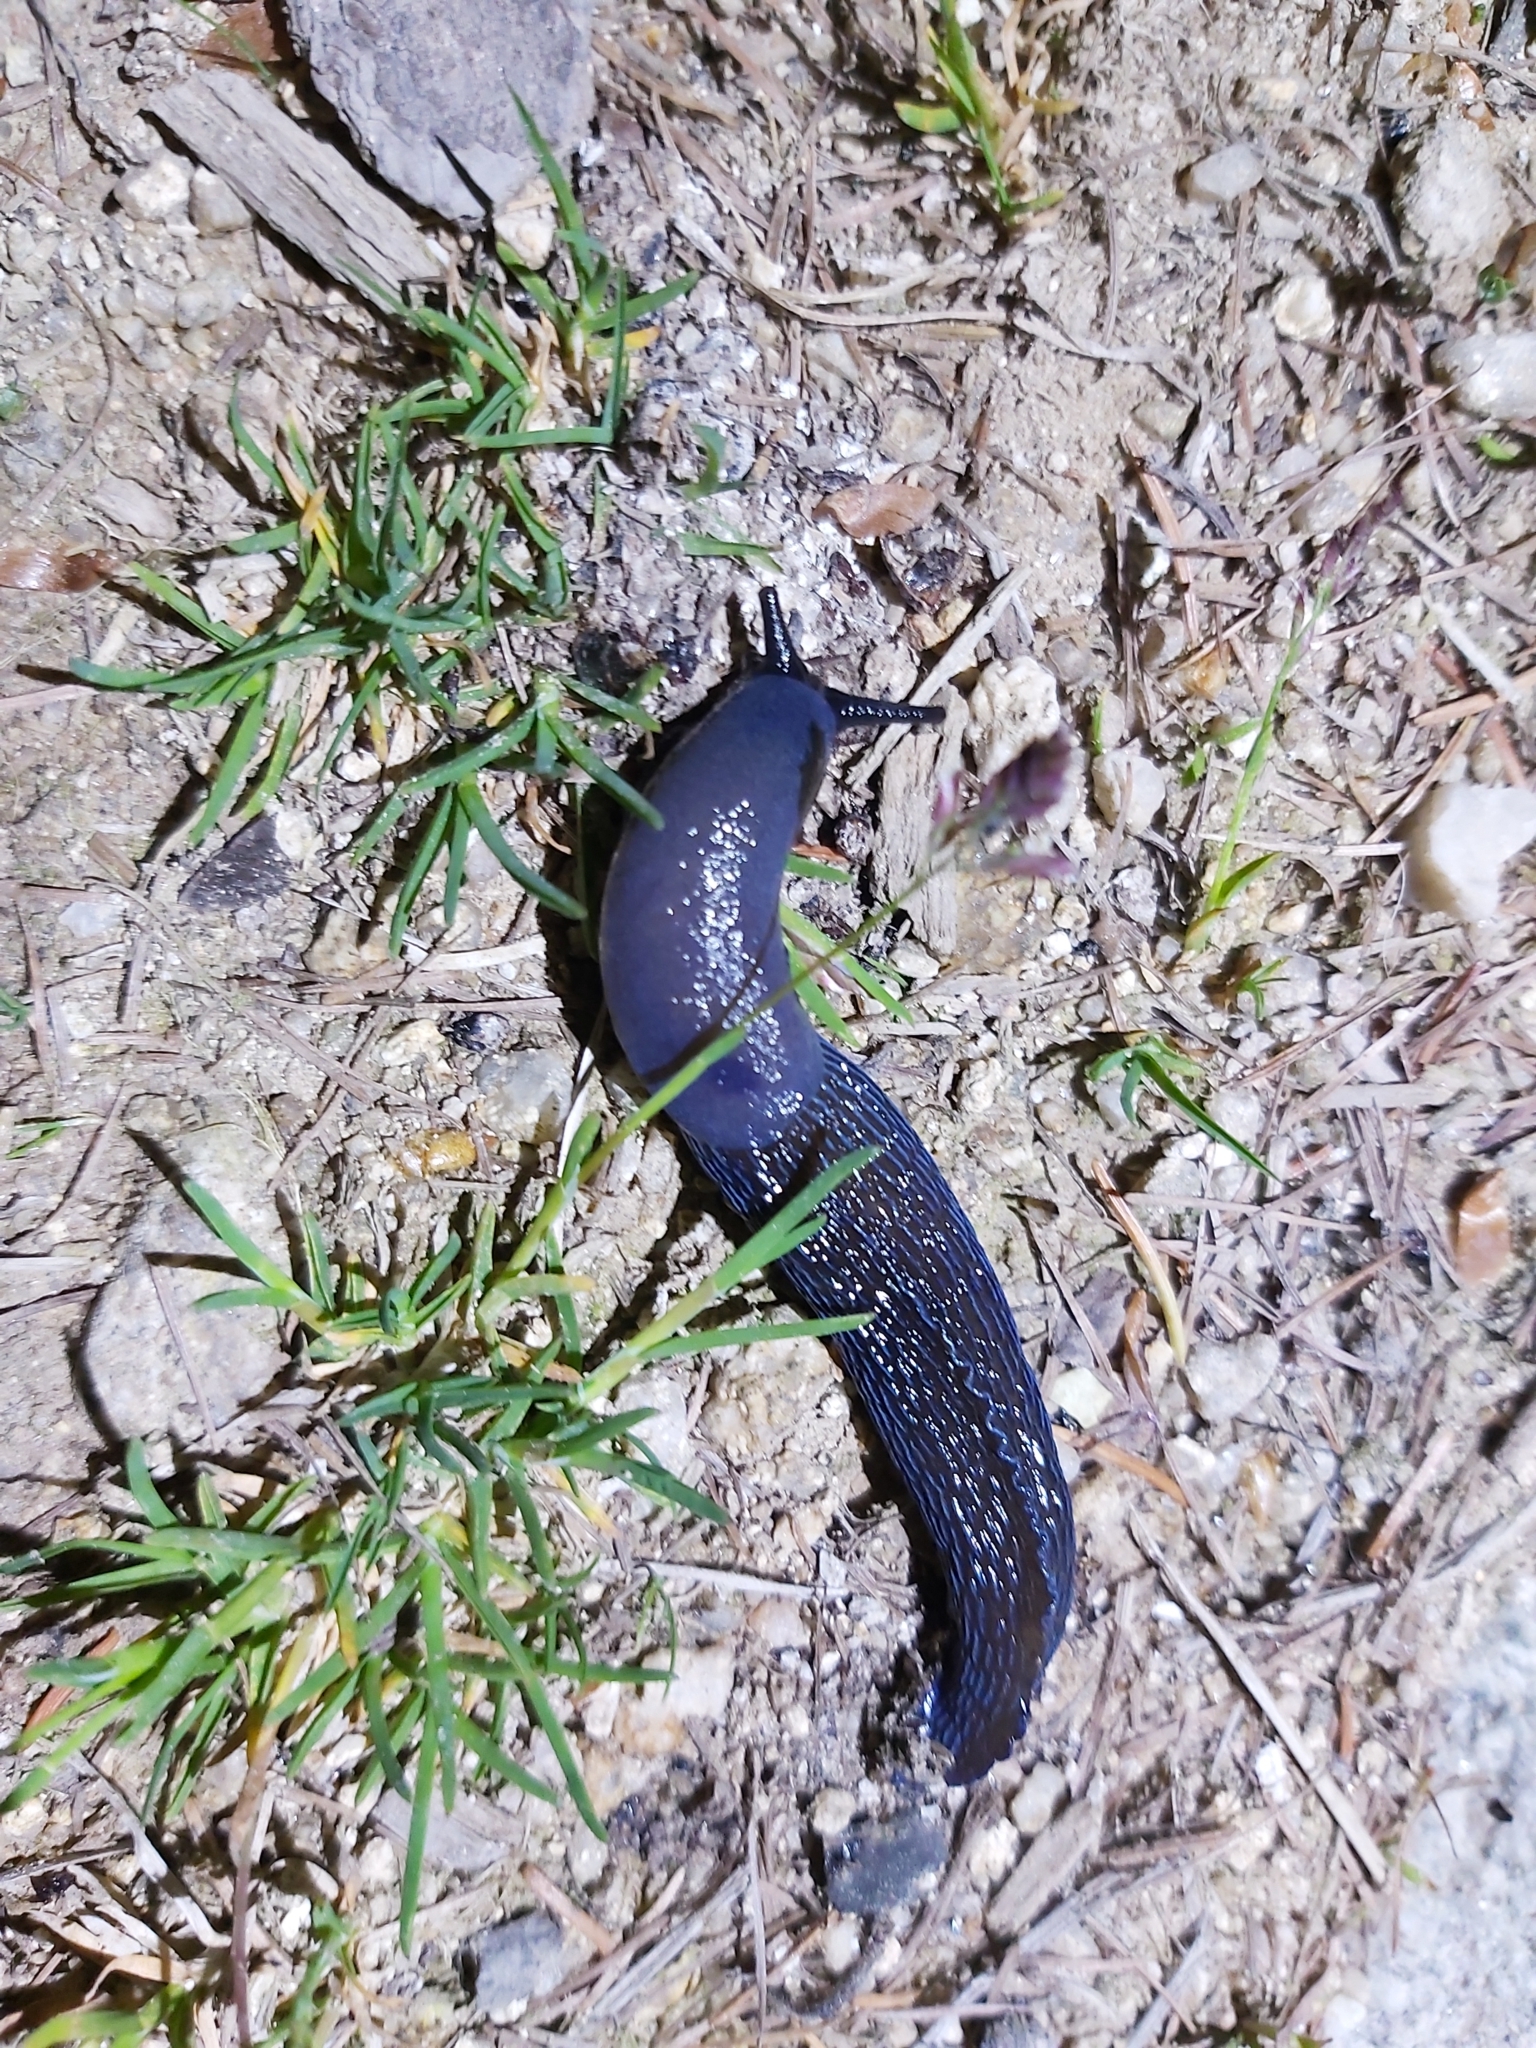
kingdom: Animalia
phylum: Mollusca
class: Gastropoda
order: Stylommatophora
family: Limacidae
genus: Bielzia
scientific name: Bielzia coerulans
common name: Carpathian blue slug
